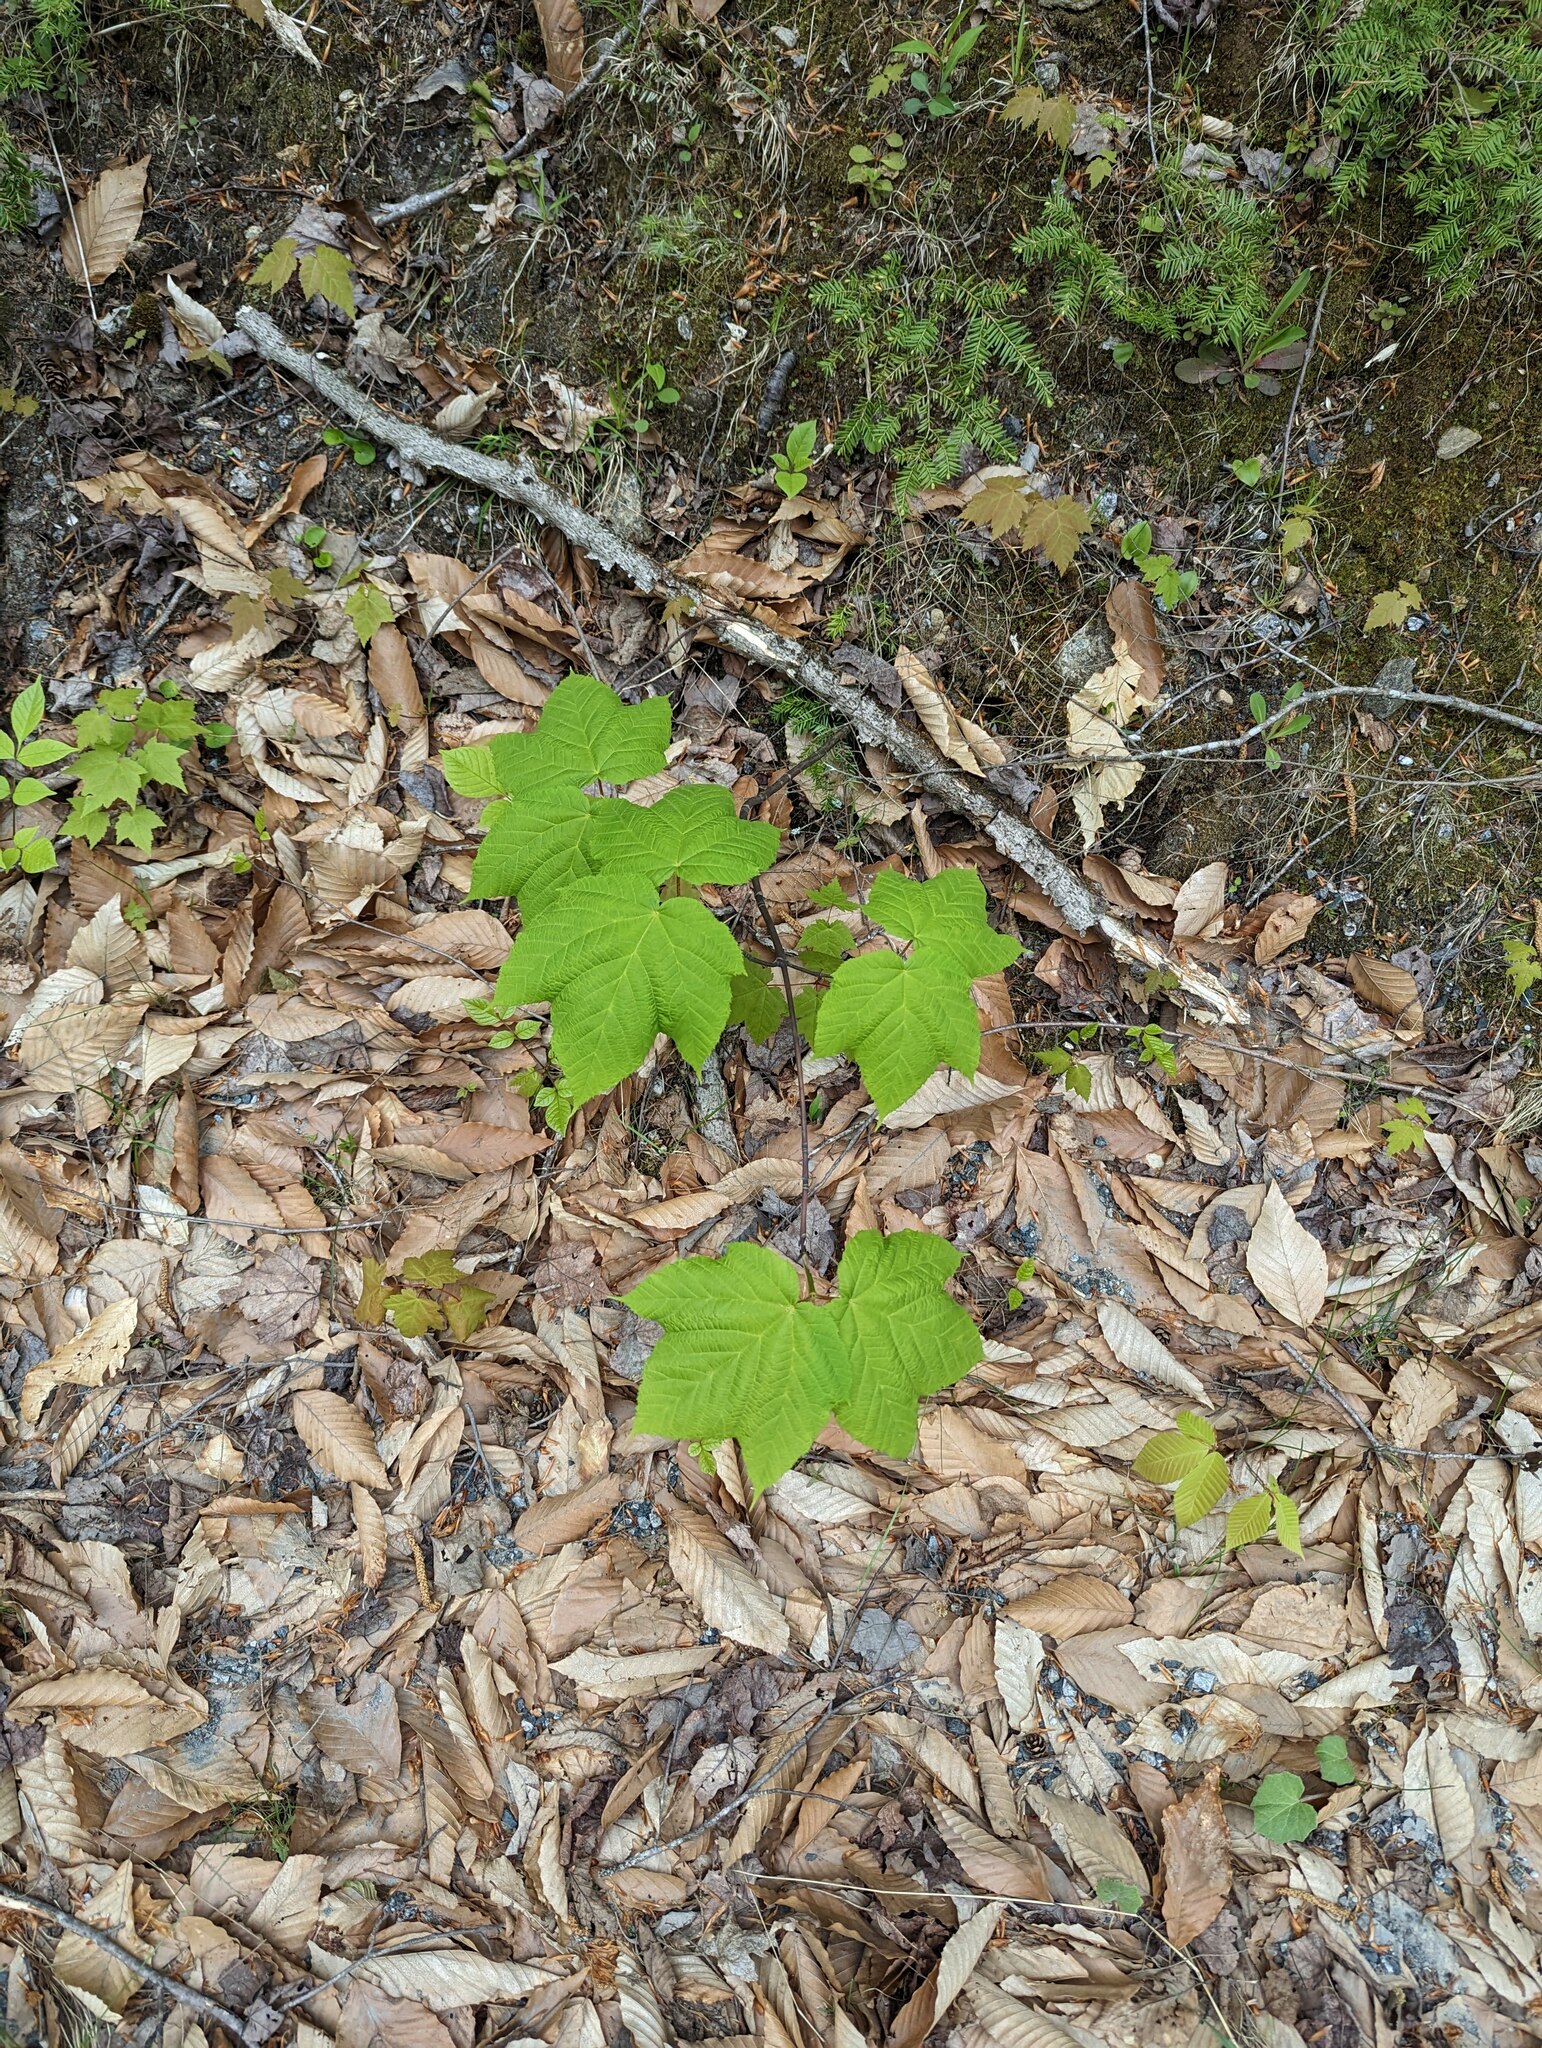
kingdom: Plantae
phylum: Tracheophyta
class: Magnoliopsida
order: Rosales
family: Rosaceae
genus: Rubus
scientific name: Rubus odoratus
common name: Purple-flowered raspberry
